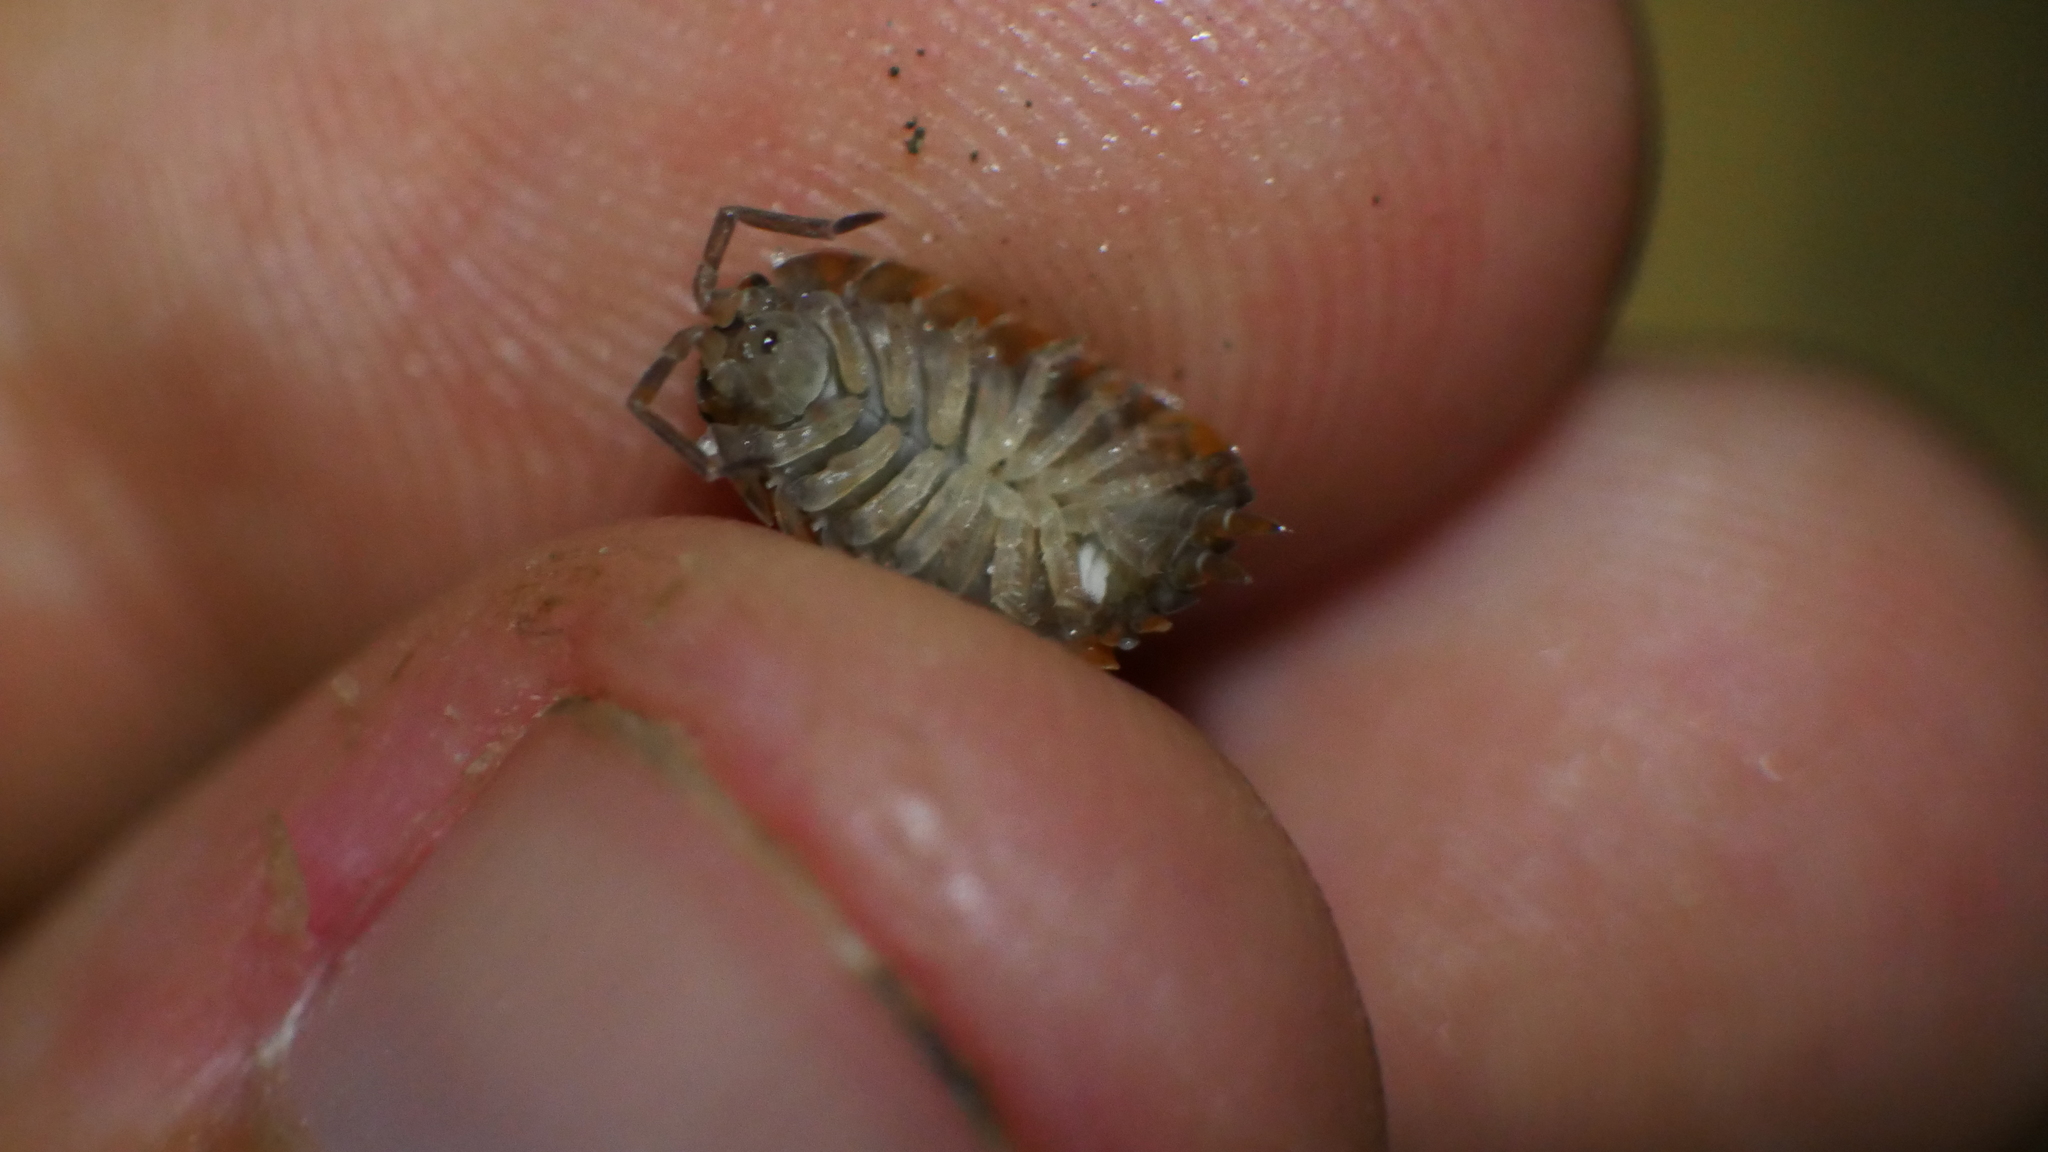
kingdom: Animalia
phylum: Arthropoda
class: Malacostraca
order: Isopoda
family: Porcellionidae
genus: Porcellio
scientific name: Porcellio scaber
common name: Common rough woodlouse
